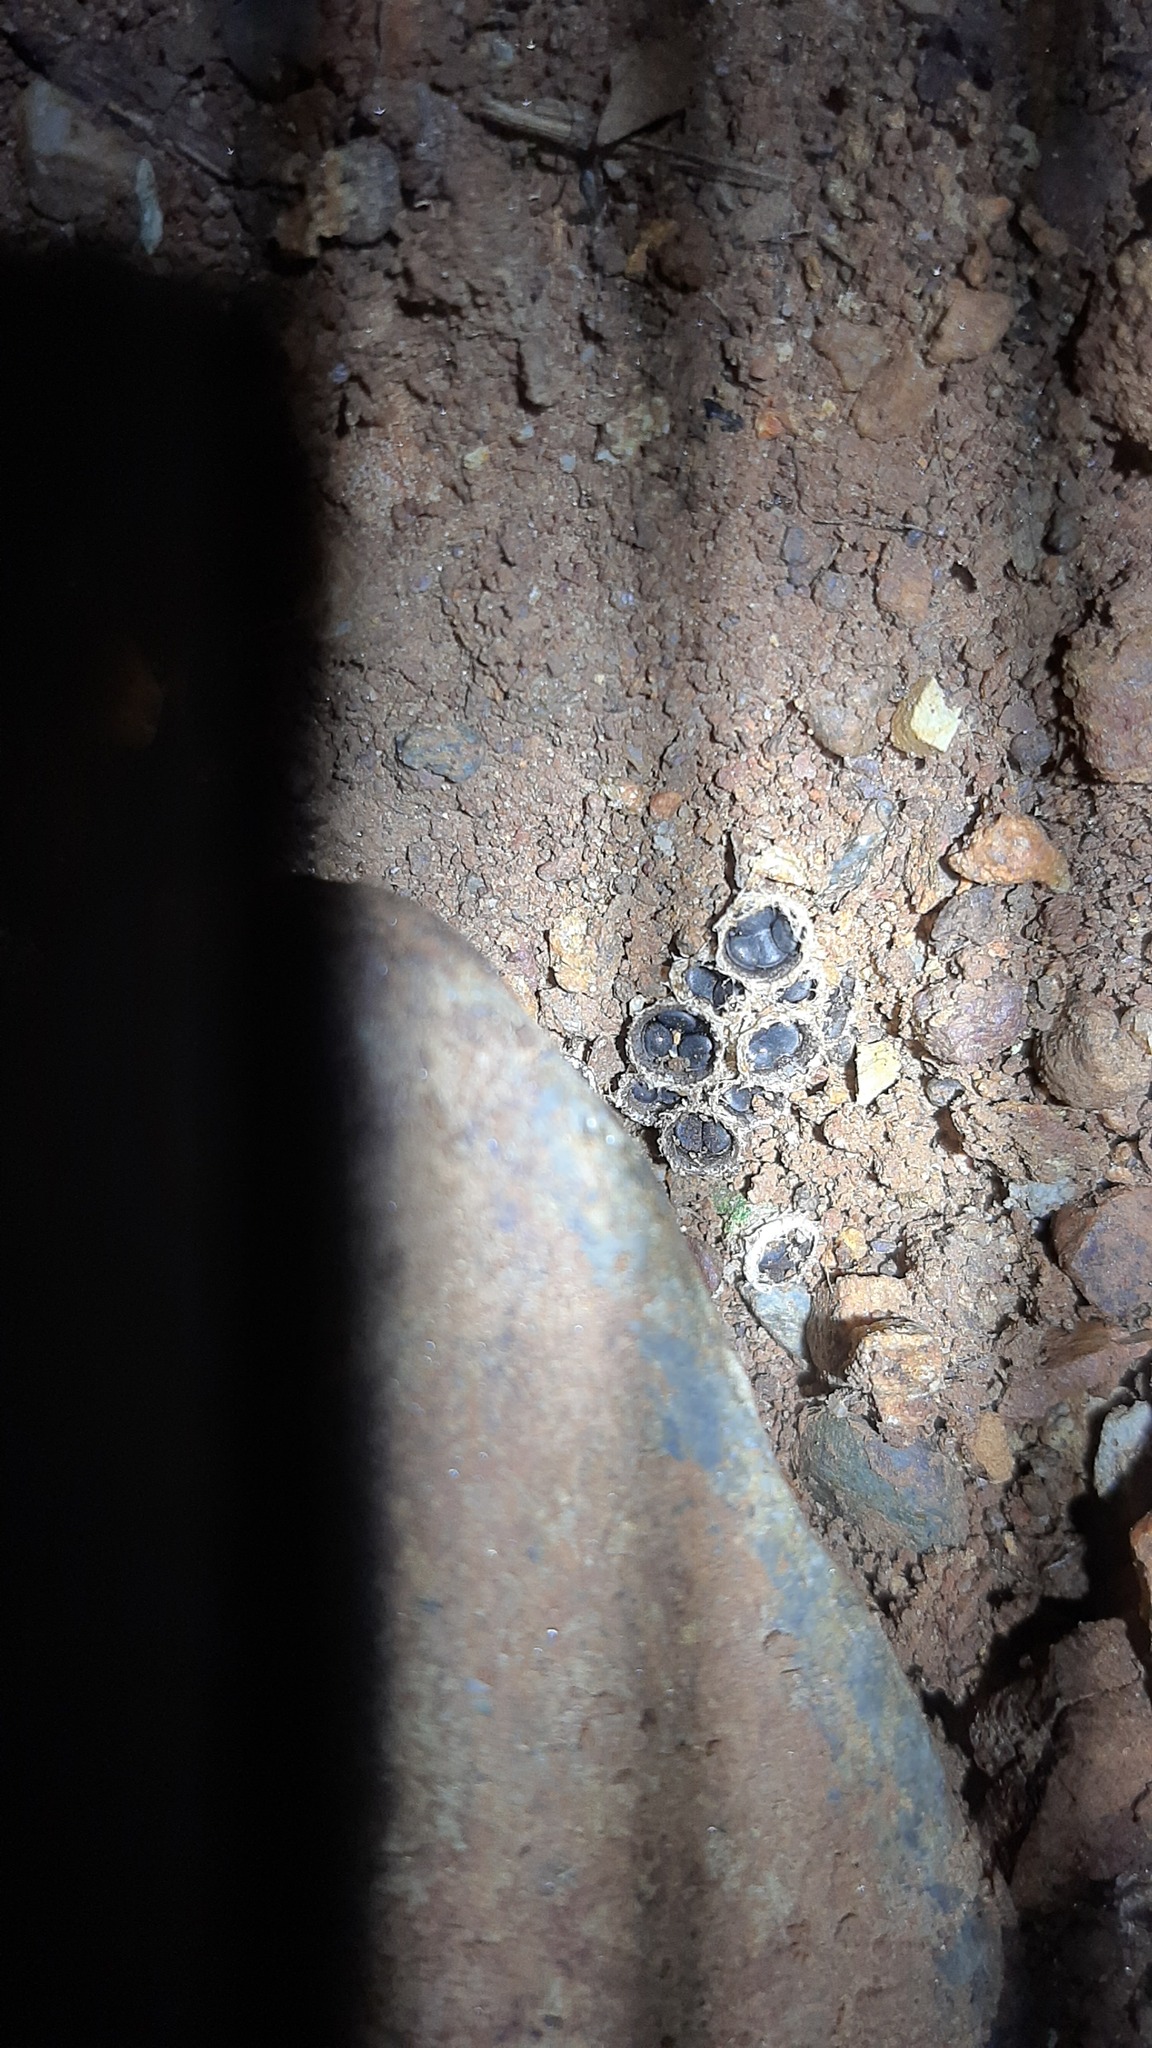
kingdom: Fungi
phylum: Basidiomycota
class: Agaricomycetes
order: Agaricales
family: Agaricaceae
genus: Cyathus
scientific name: Cyathus olla
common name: Field bird's nest
